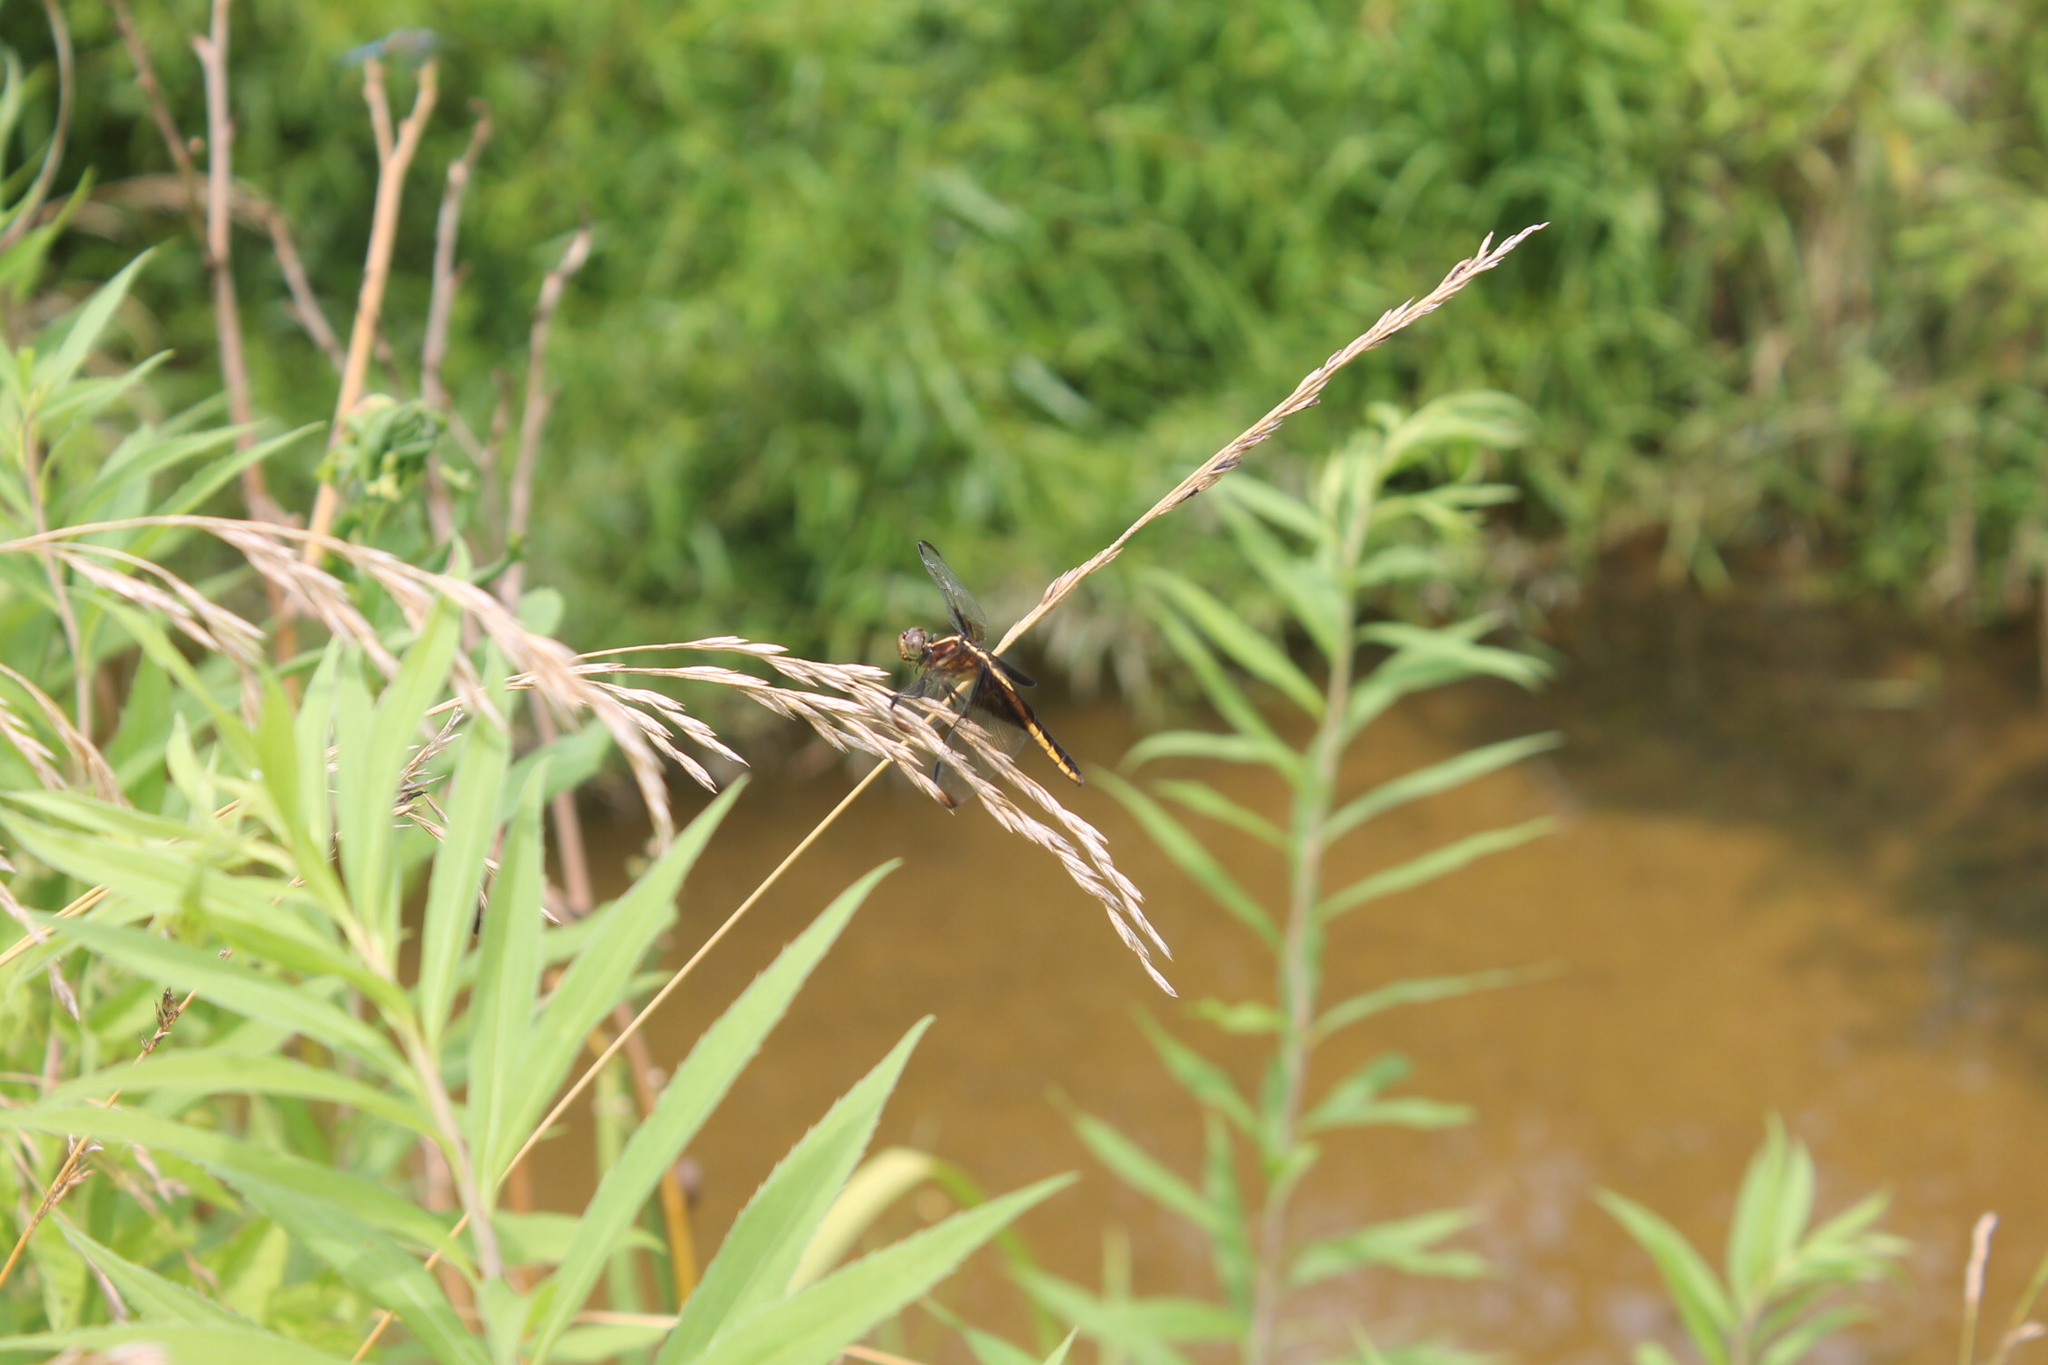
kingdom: Animalia
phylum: Arthropoda
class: Insecta
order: Odonata
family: Libellulidae
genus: Libellula
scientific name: Libellula luctuosa
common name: Widow skimmer
